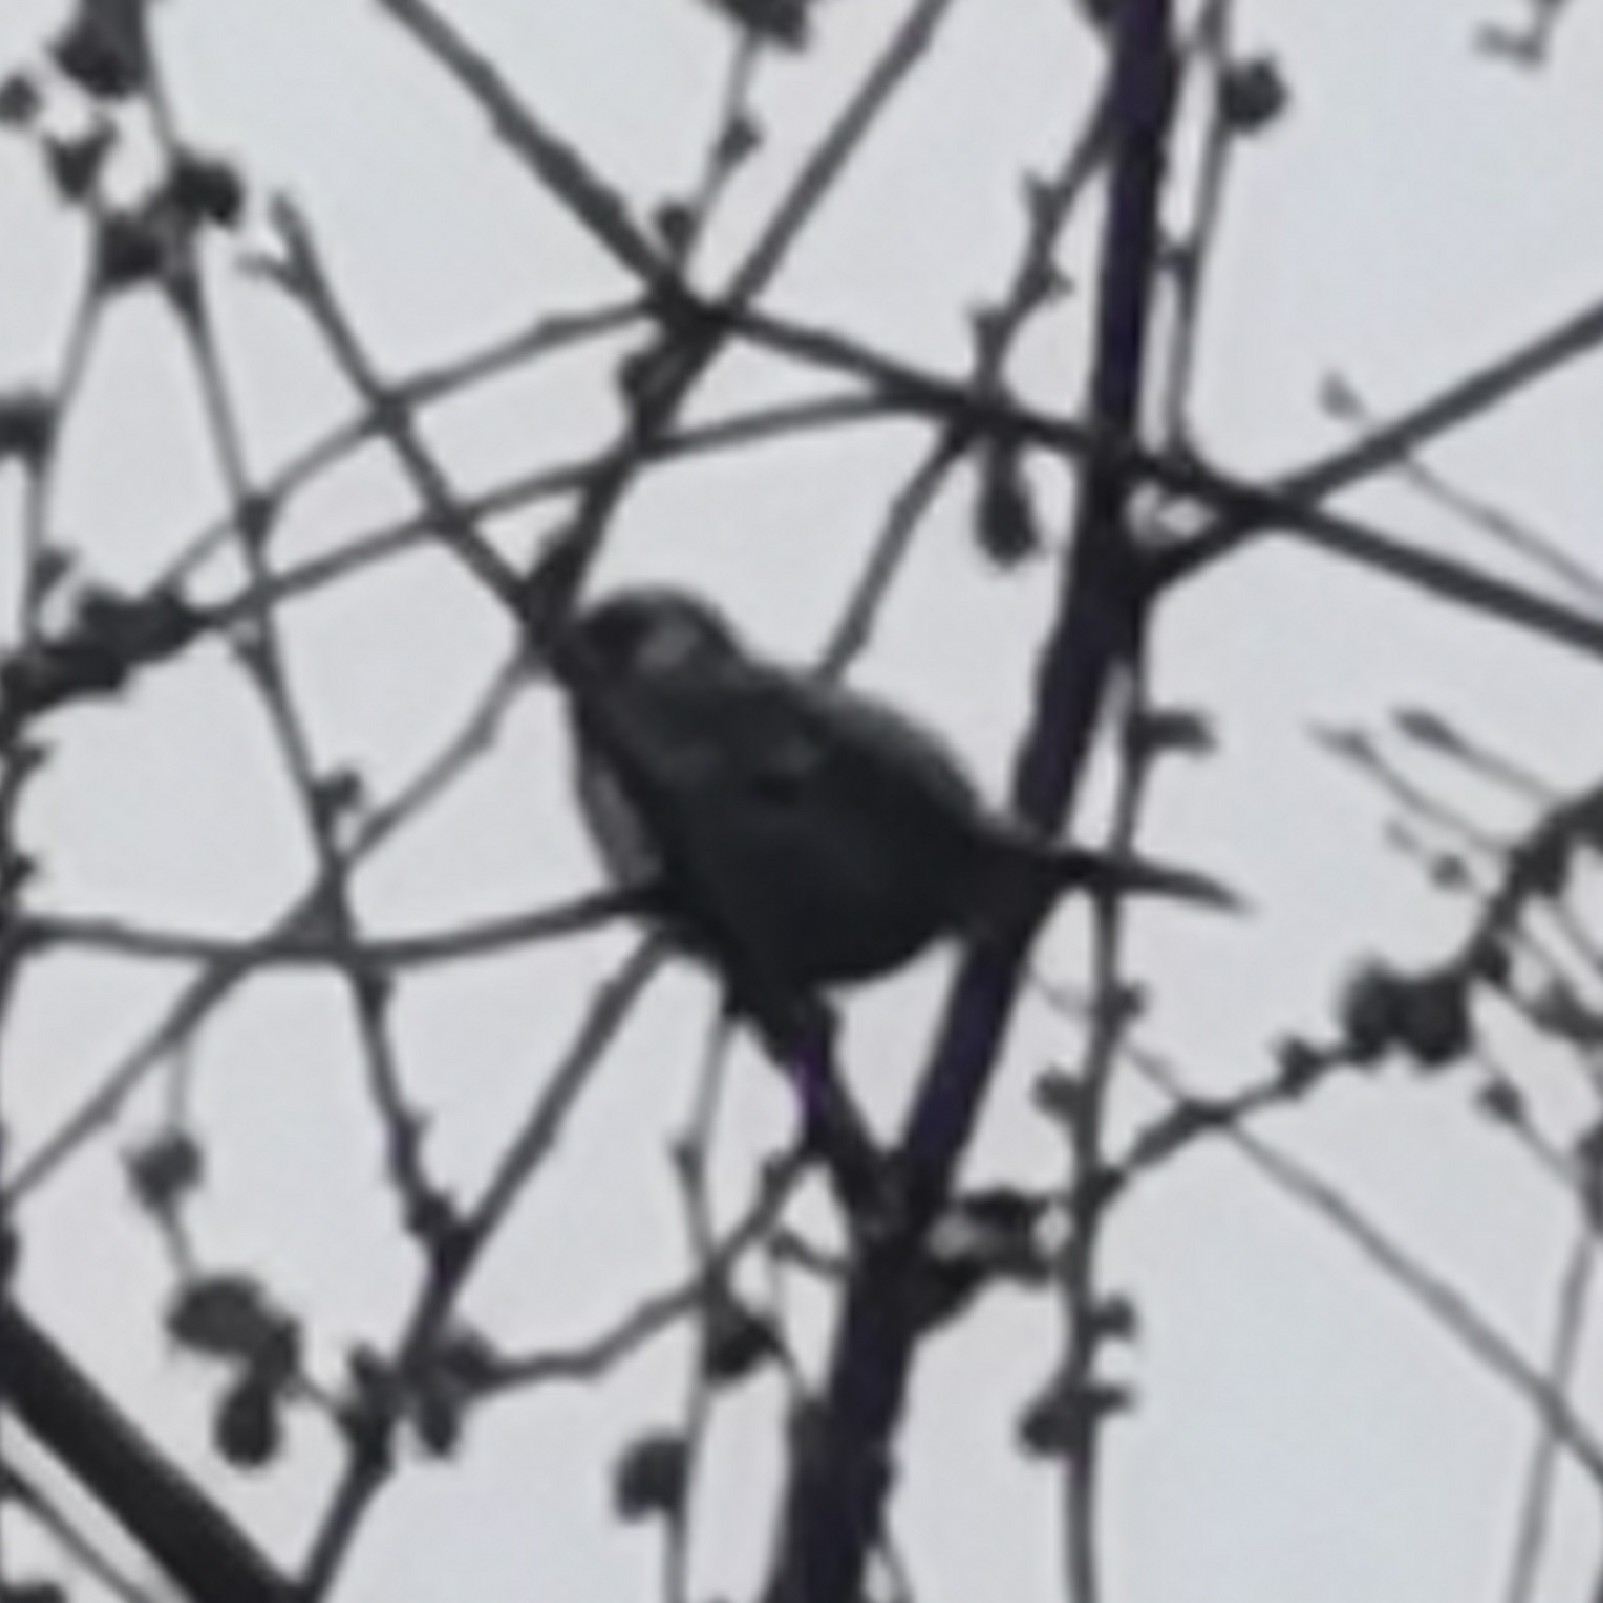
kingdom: Animalia
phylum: Chordata
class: Aves
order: Passeriformes
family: Fringillidae
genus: Carduelis
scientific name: Carduelis carduelis
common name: European goldfinch
